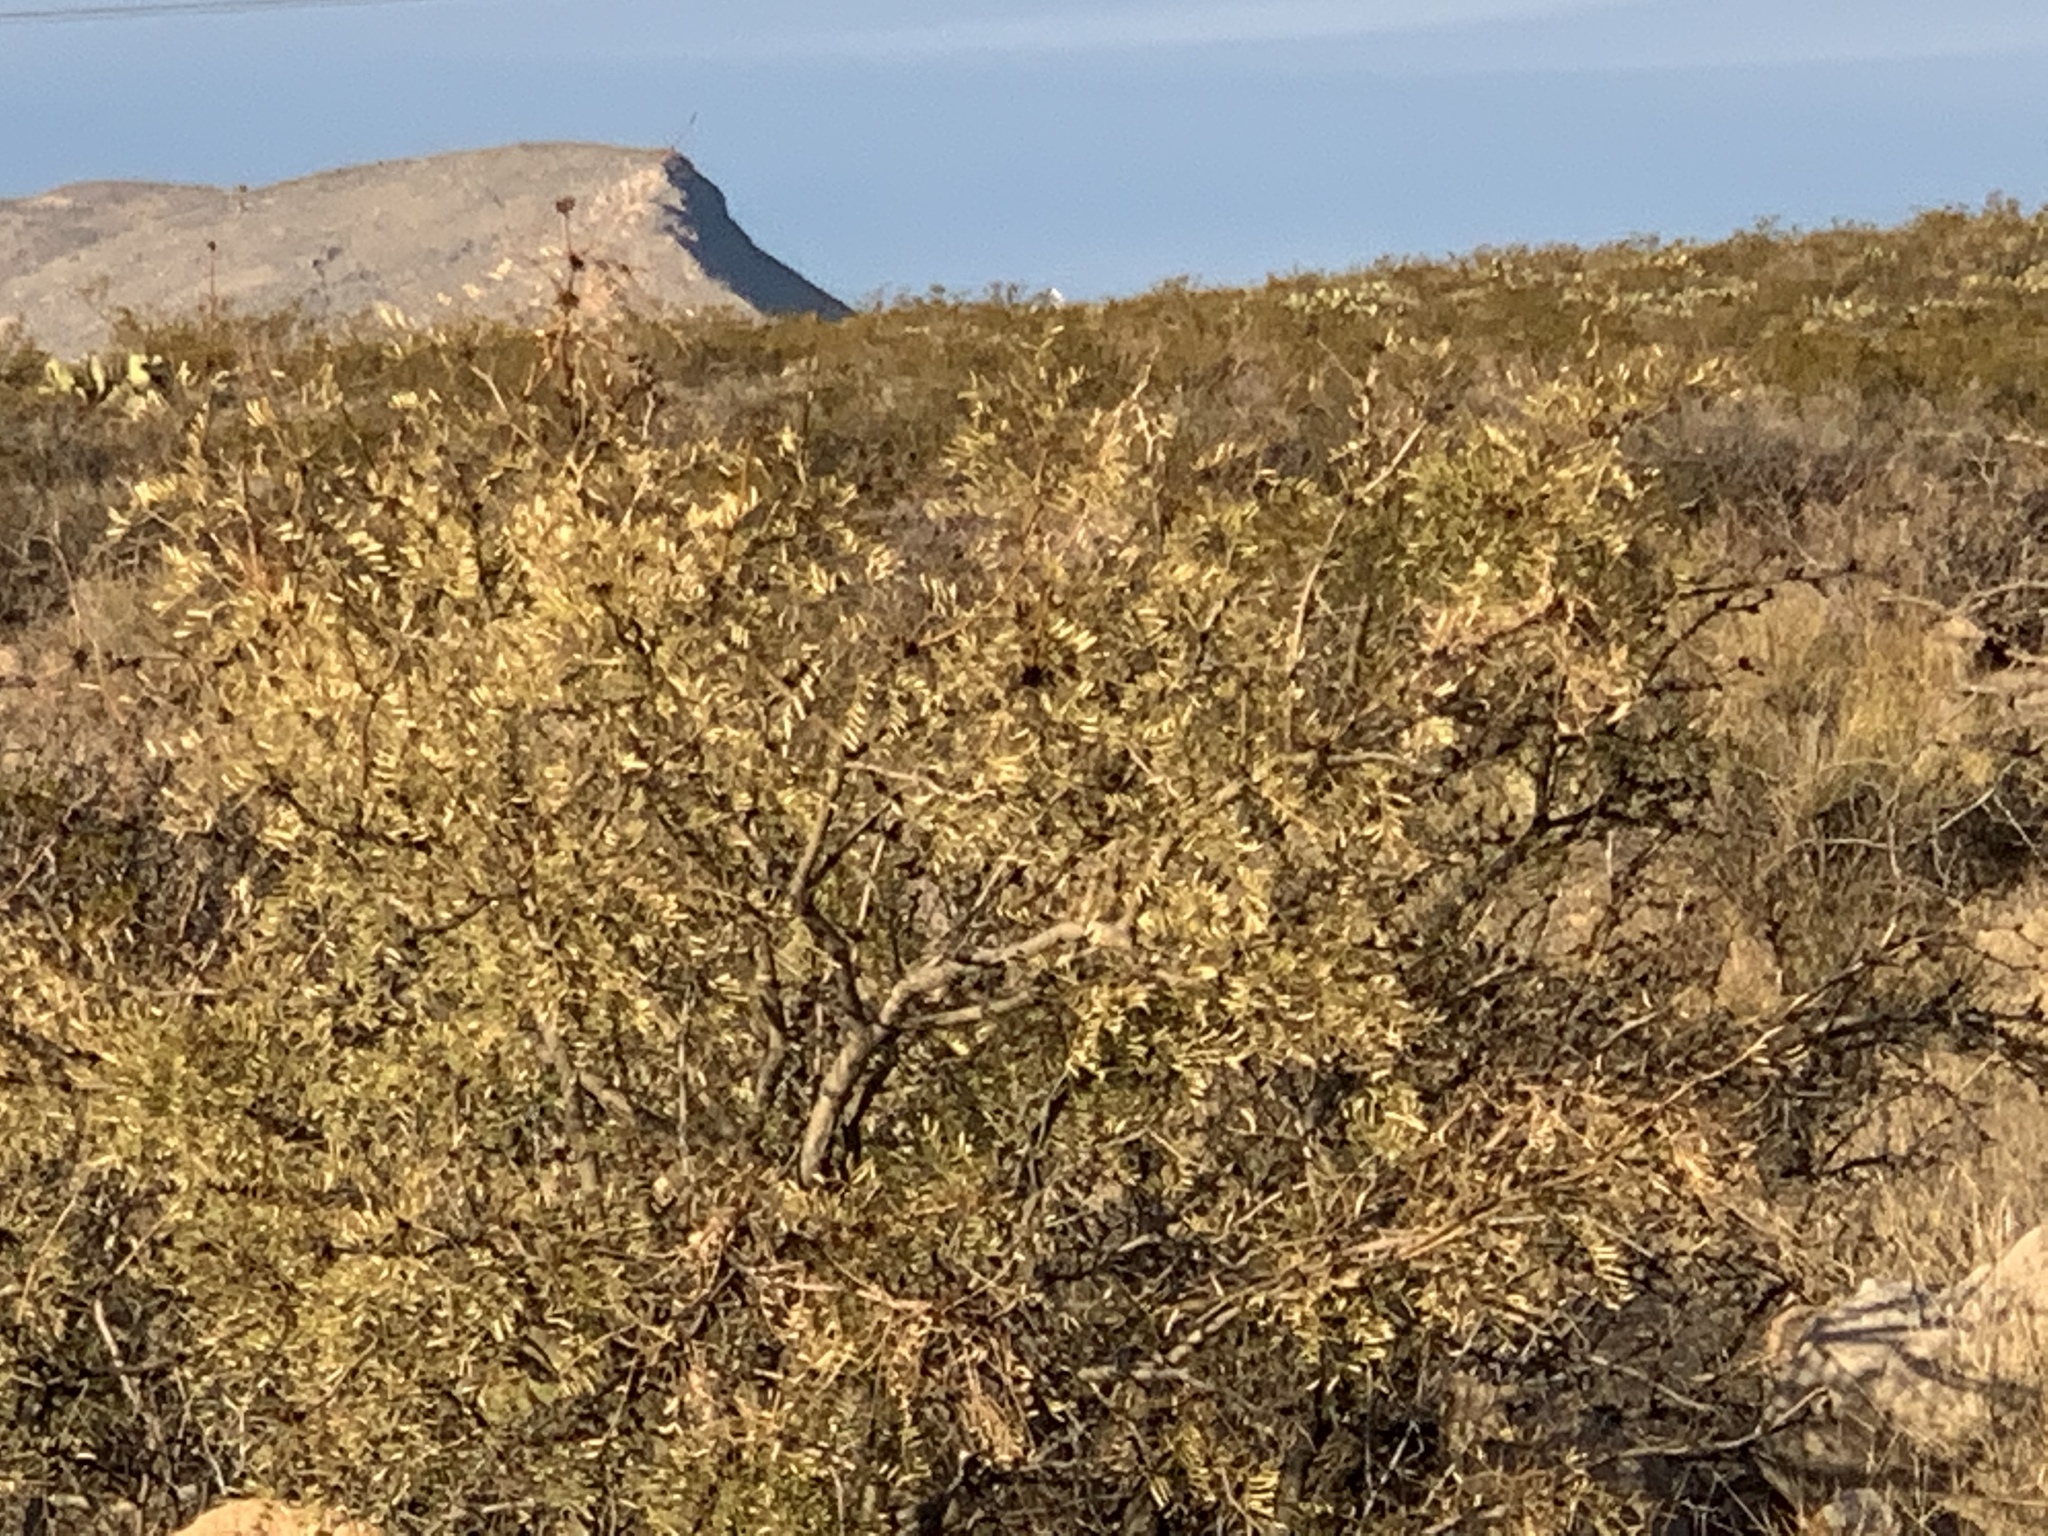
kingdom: Plantae
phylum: Tracheophyta
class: Magnoliopsida
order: Fabales
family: Fabaceae
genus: Prosopis
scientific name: Prosopis glandulosa
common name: Honey mesquite
